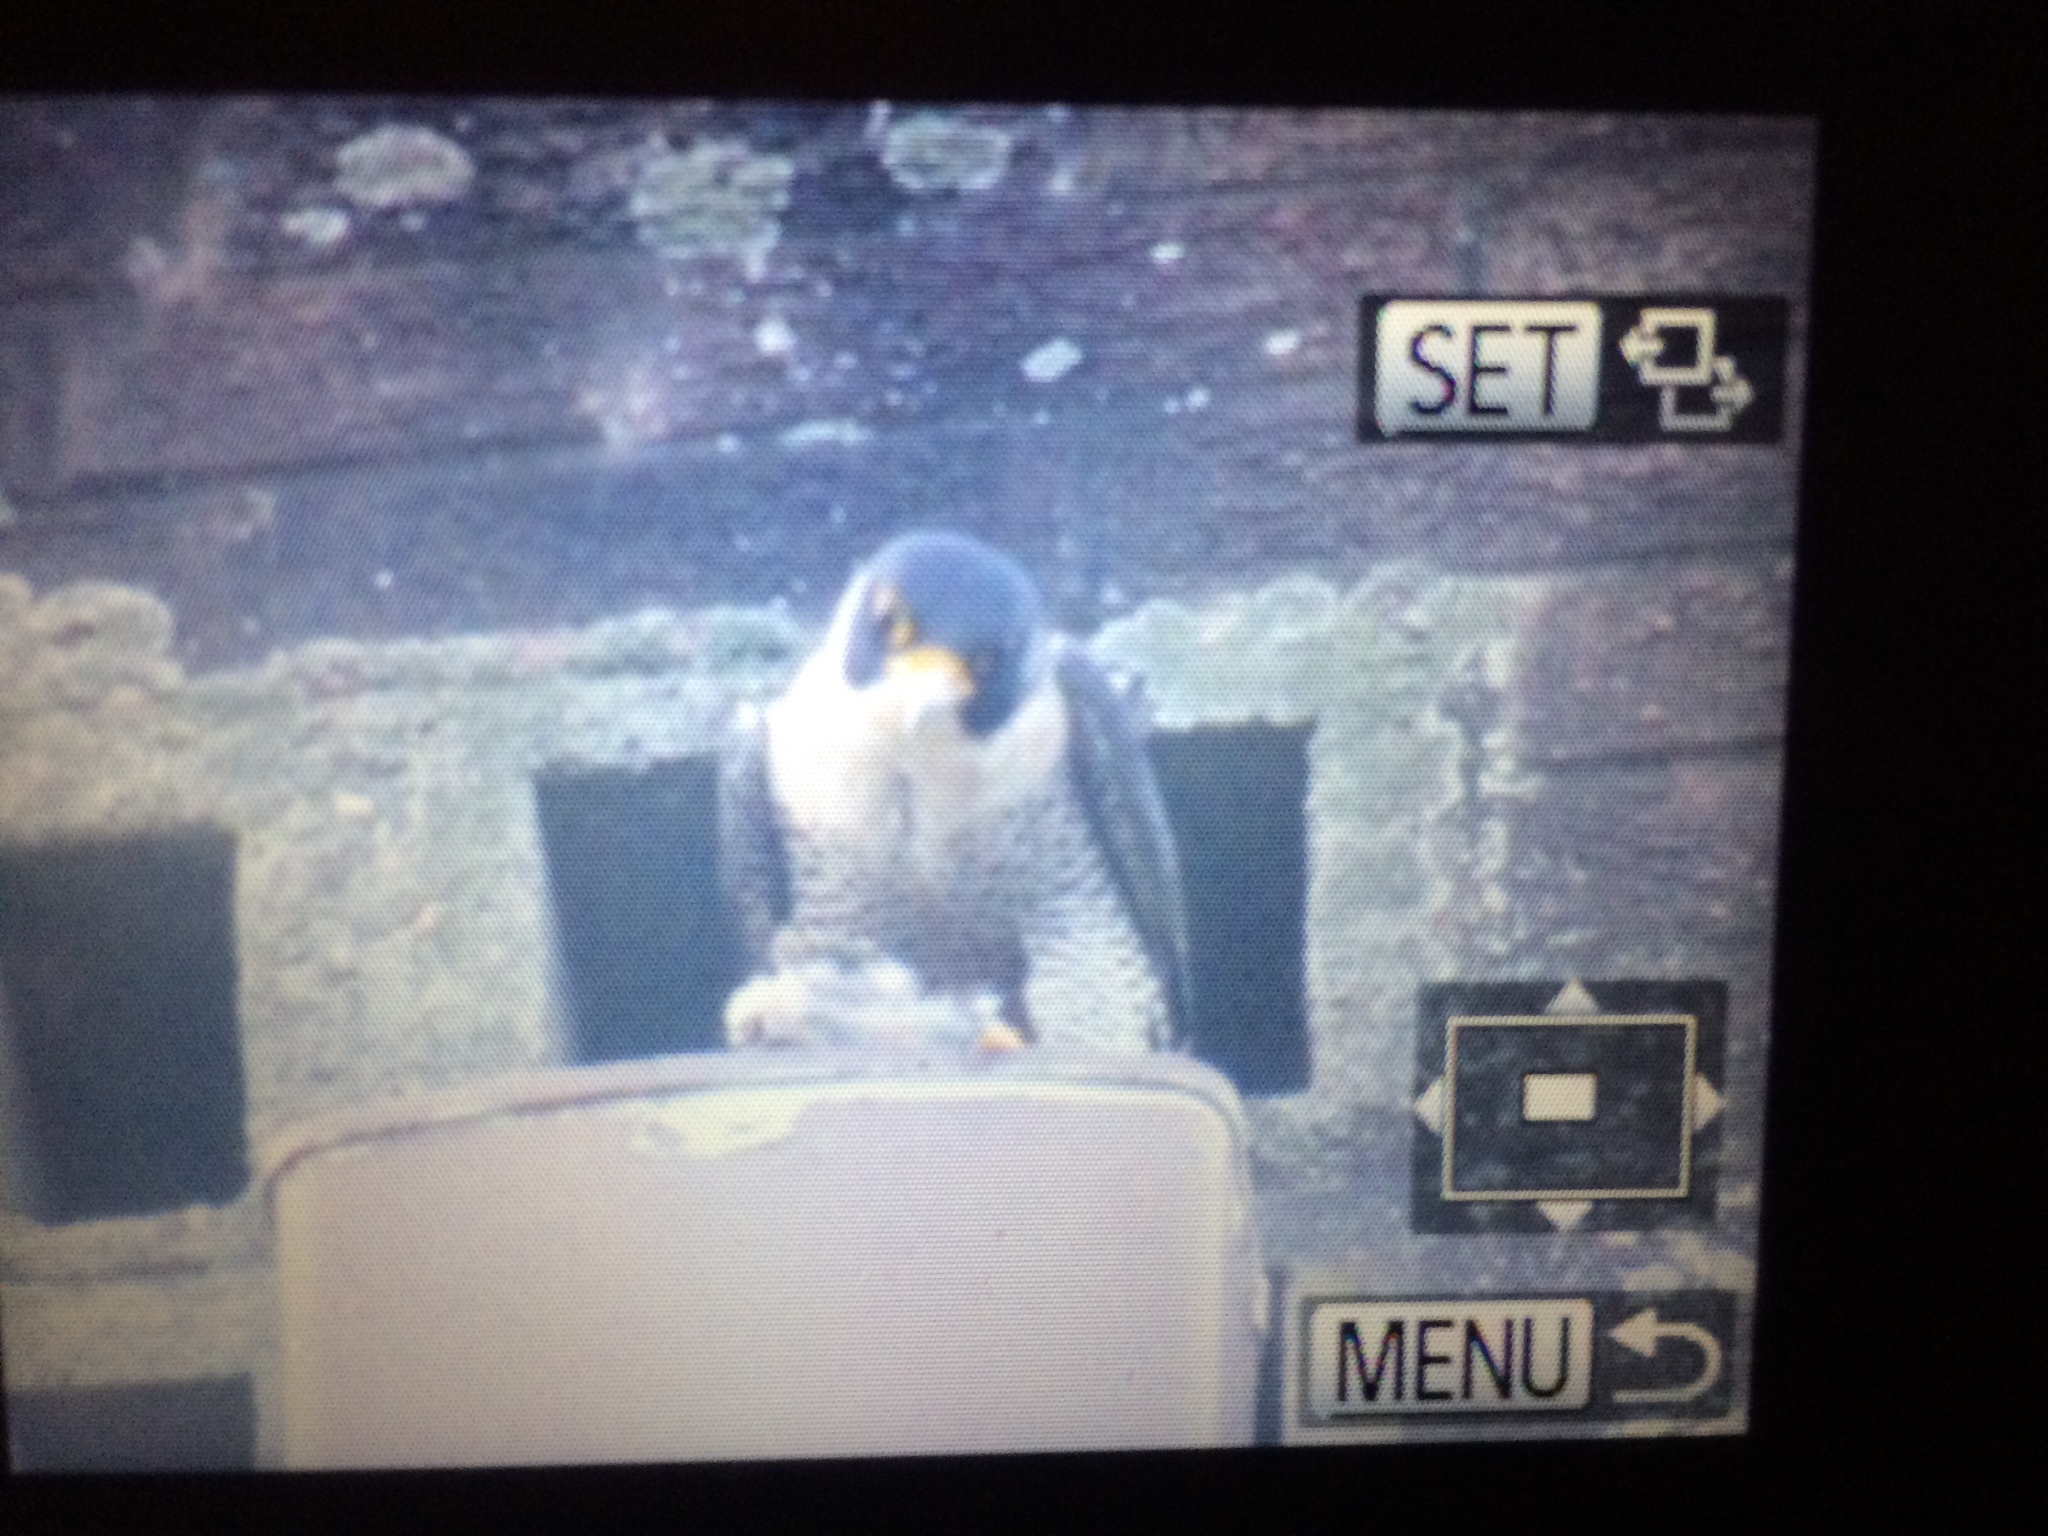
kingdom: Animalia
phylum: Chordata
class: Aves
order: Falconiformes
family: Falconidae
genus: Falco
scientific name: Falco peregrinus
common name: Peregrine falcon
